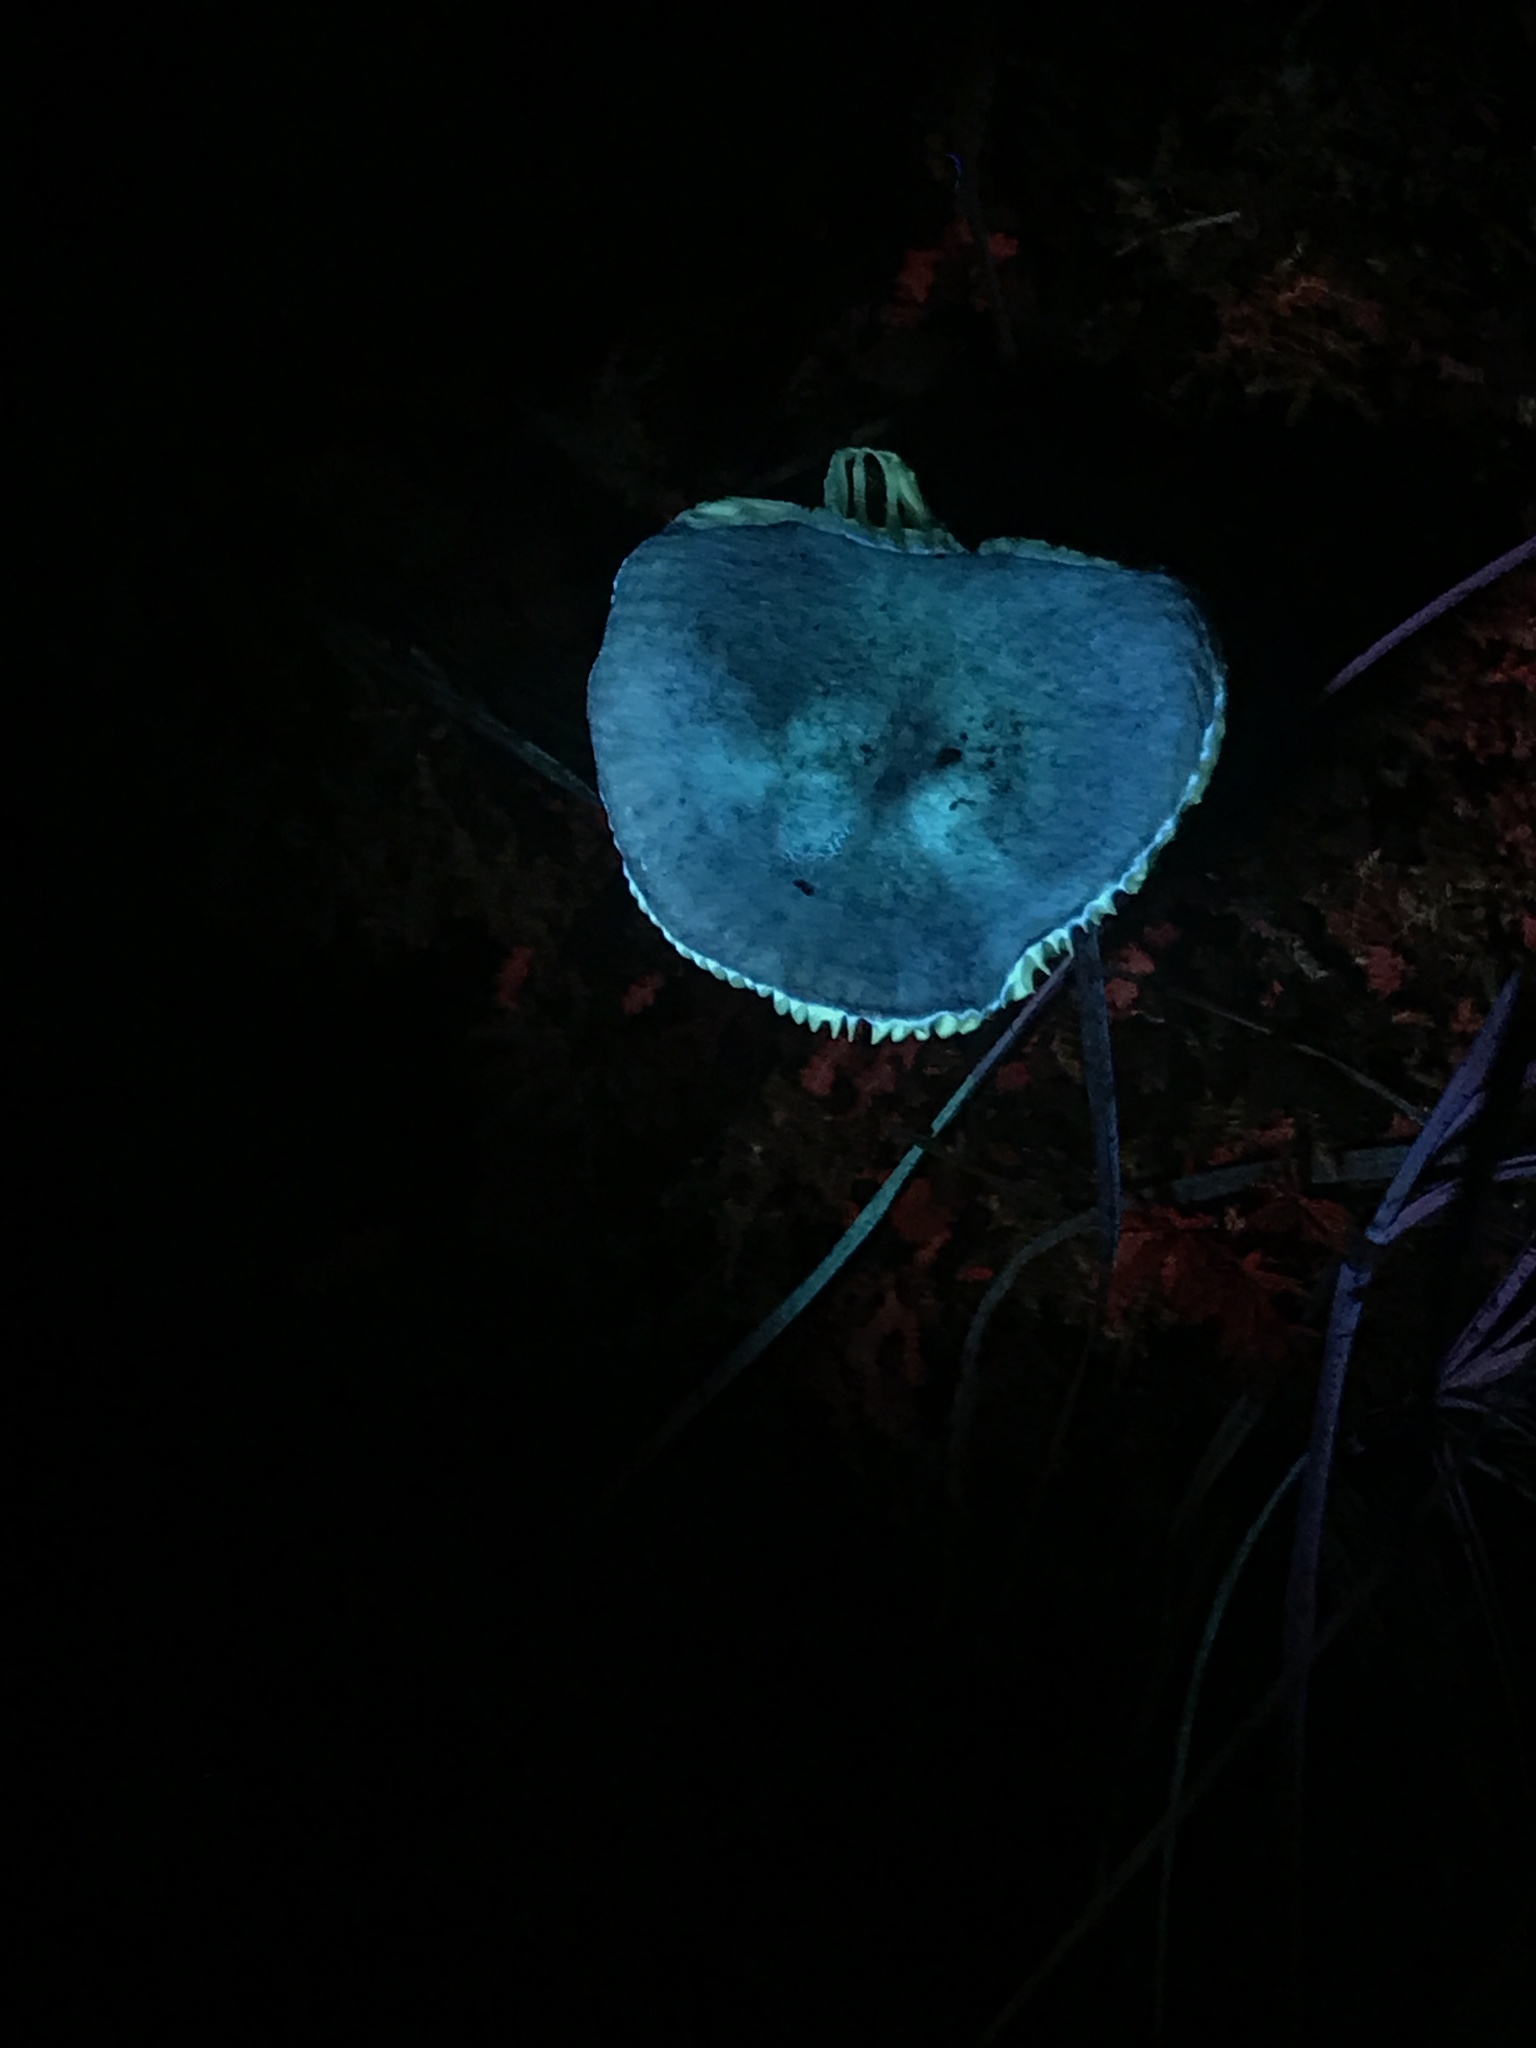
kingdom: Fungi
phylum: Basidiomycota
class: Agaricomycetes
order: Russulales
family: Russulaceae
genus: Russula
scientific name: Russula cremeirosea
